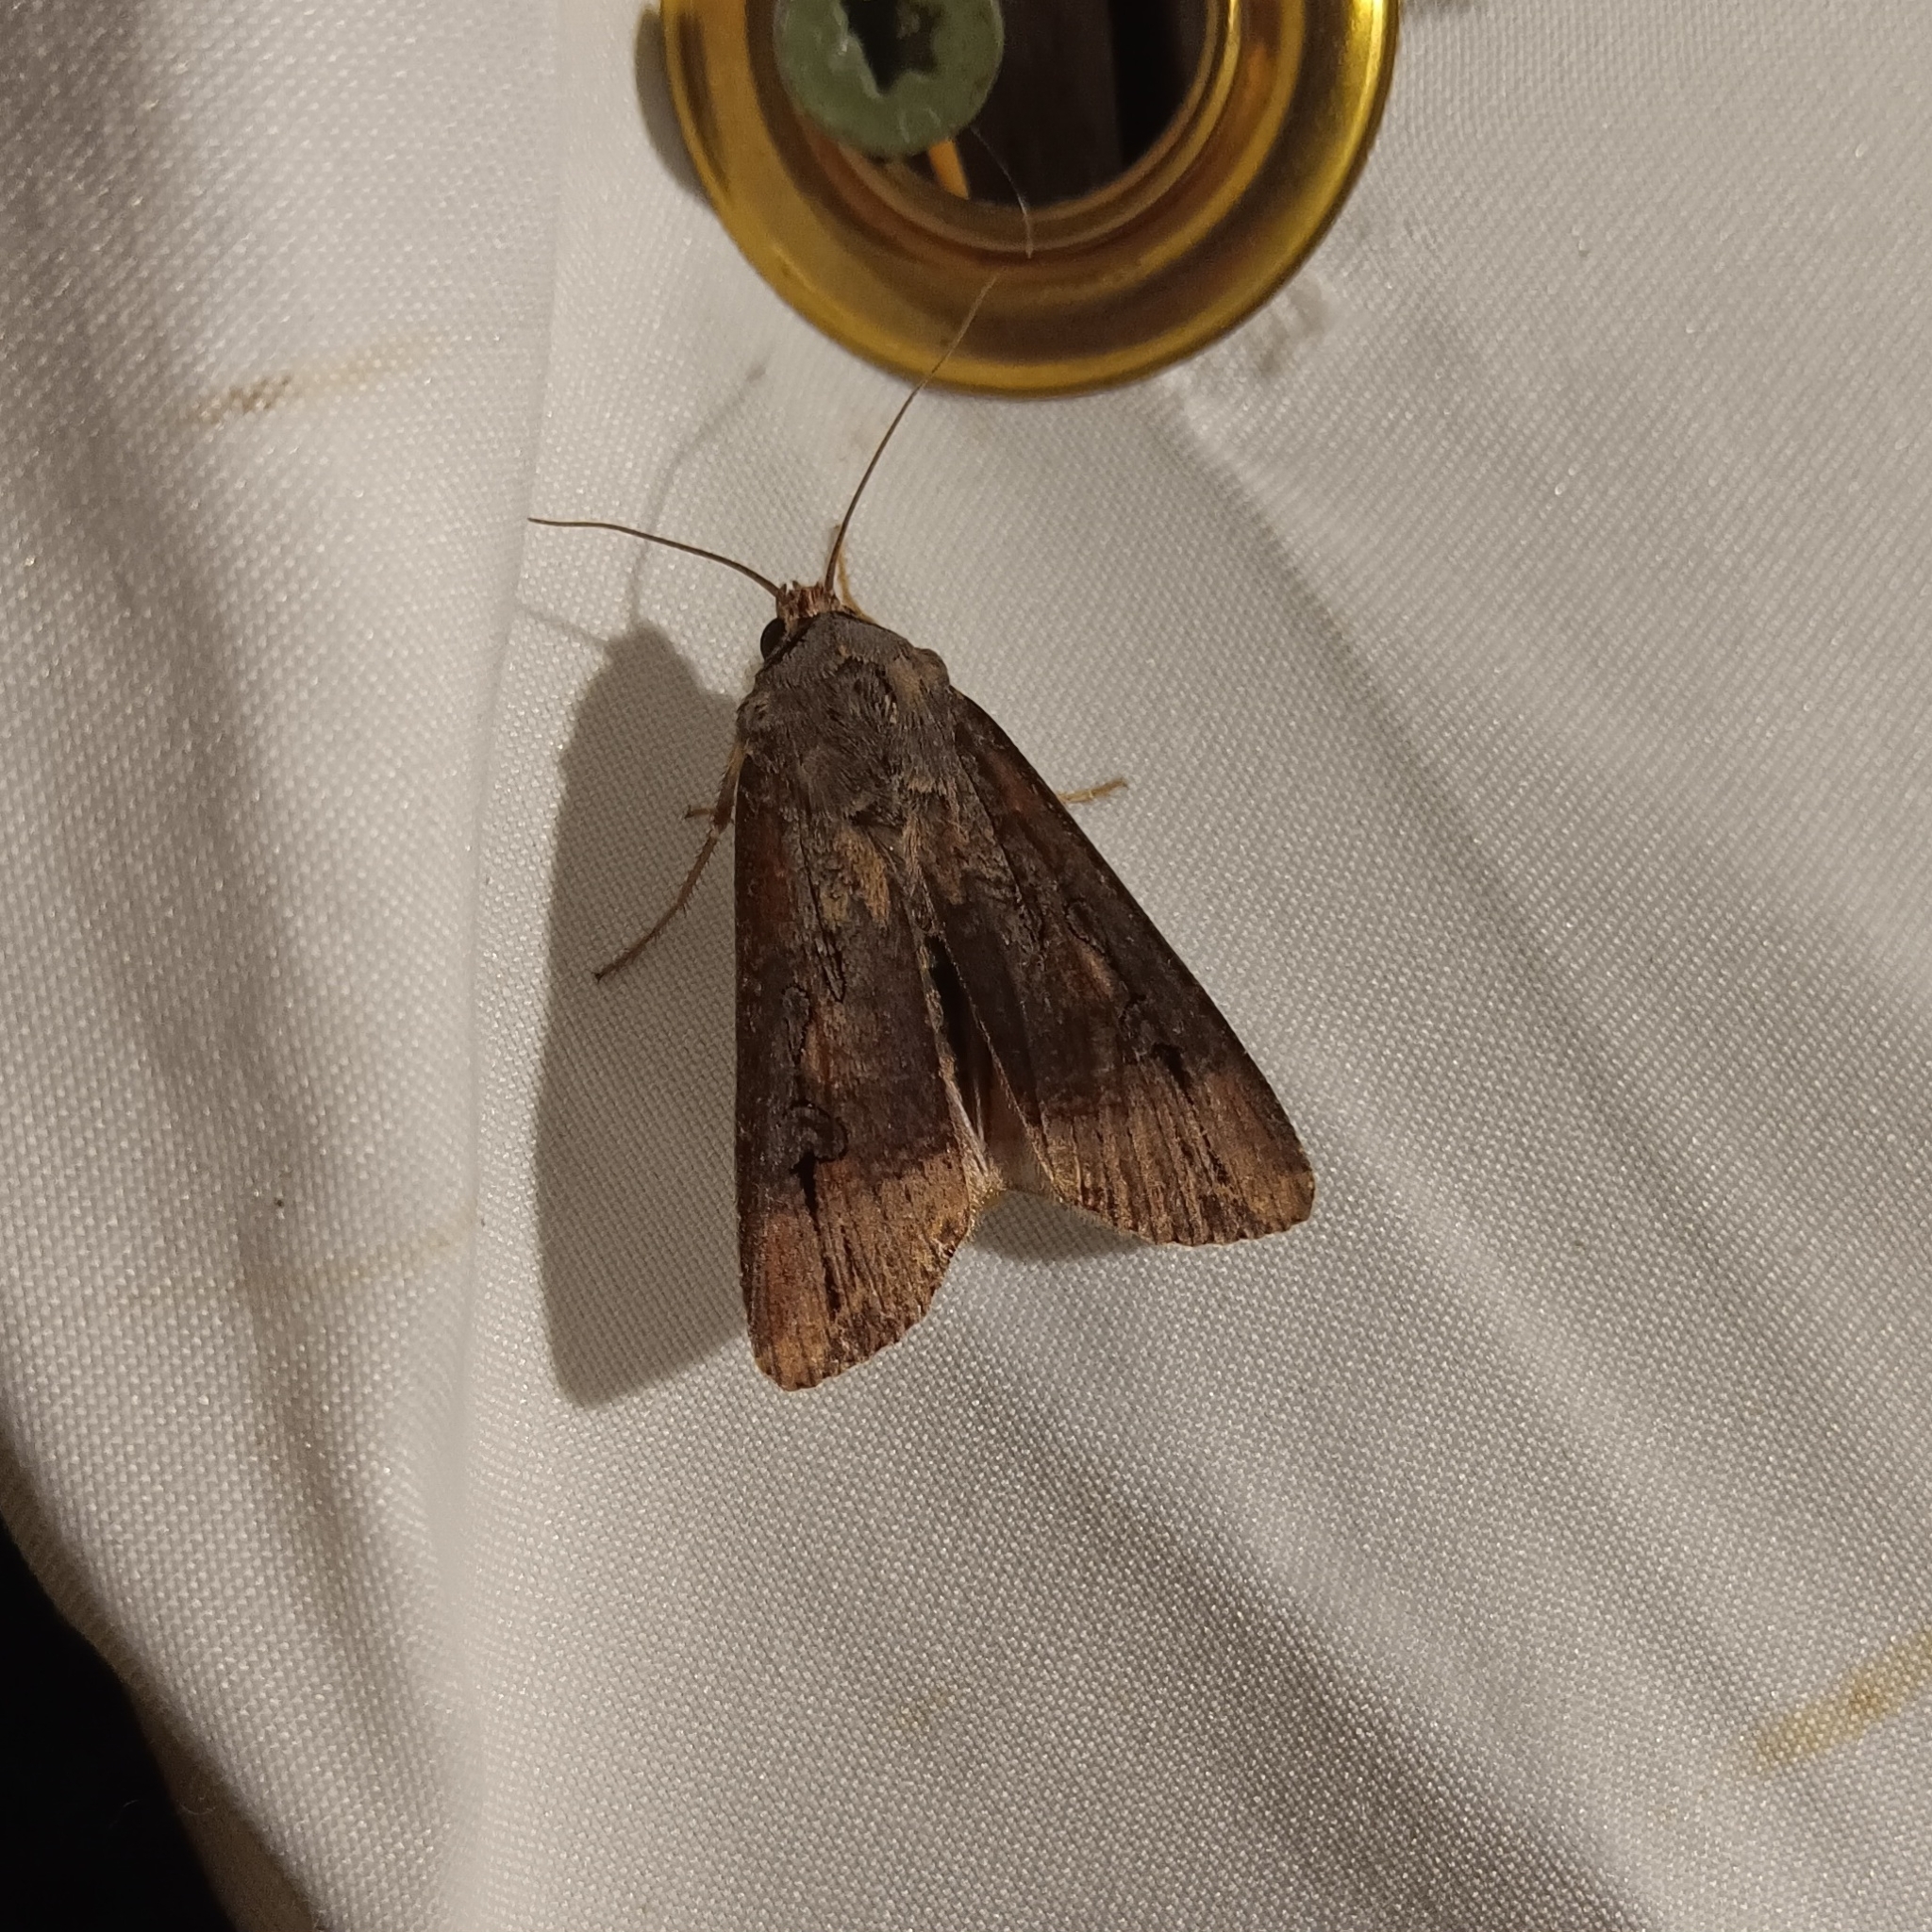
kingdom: Animalia
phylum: Arthropoda
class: Insecta
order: Lepidoptera
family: Noctuidae
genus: Agrotis
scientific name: Agrotis ipsilon
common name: Dark sword-grass
